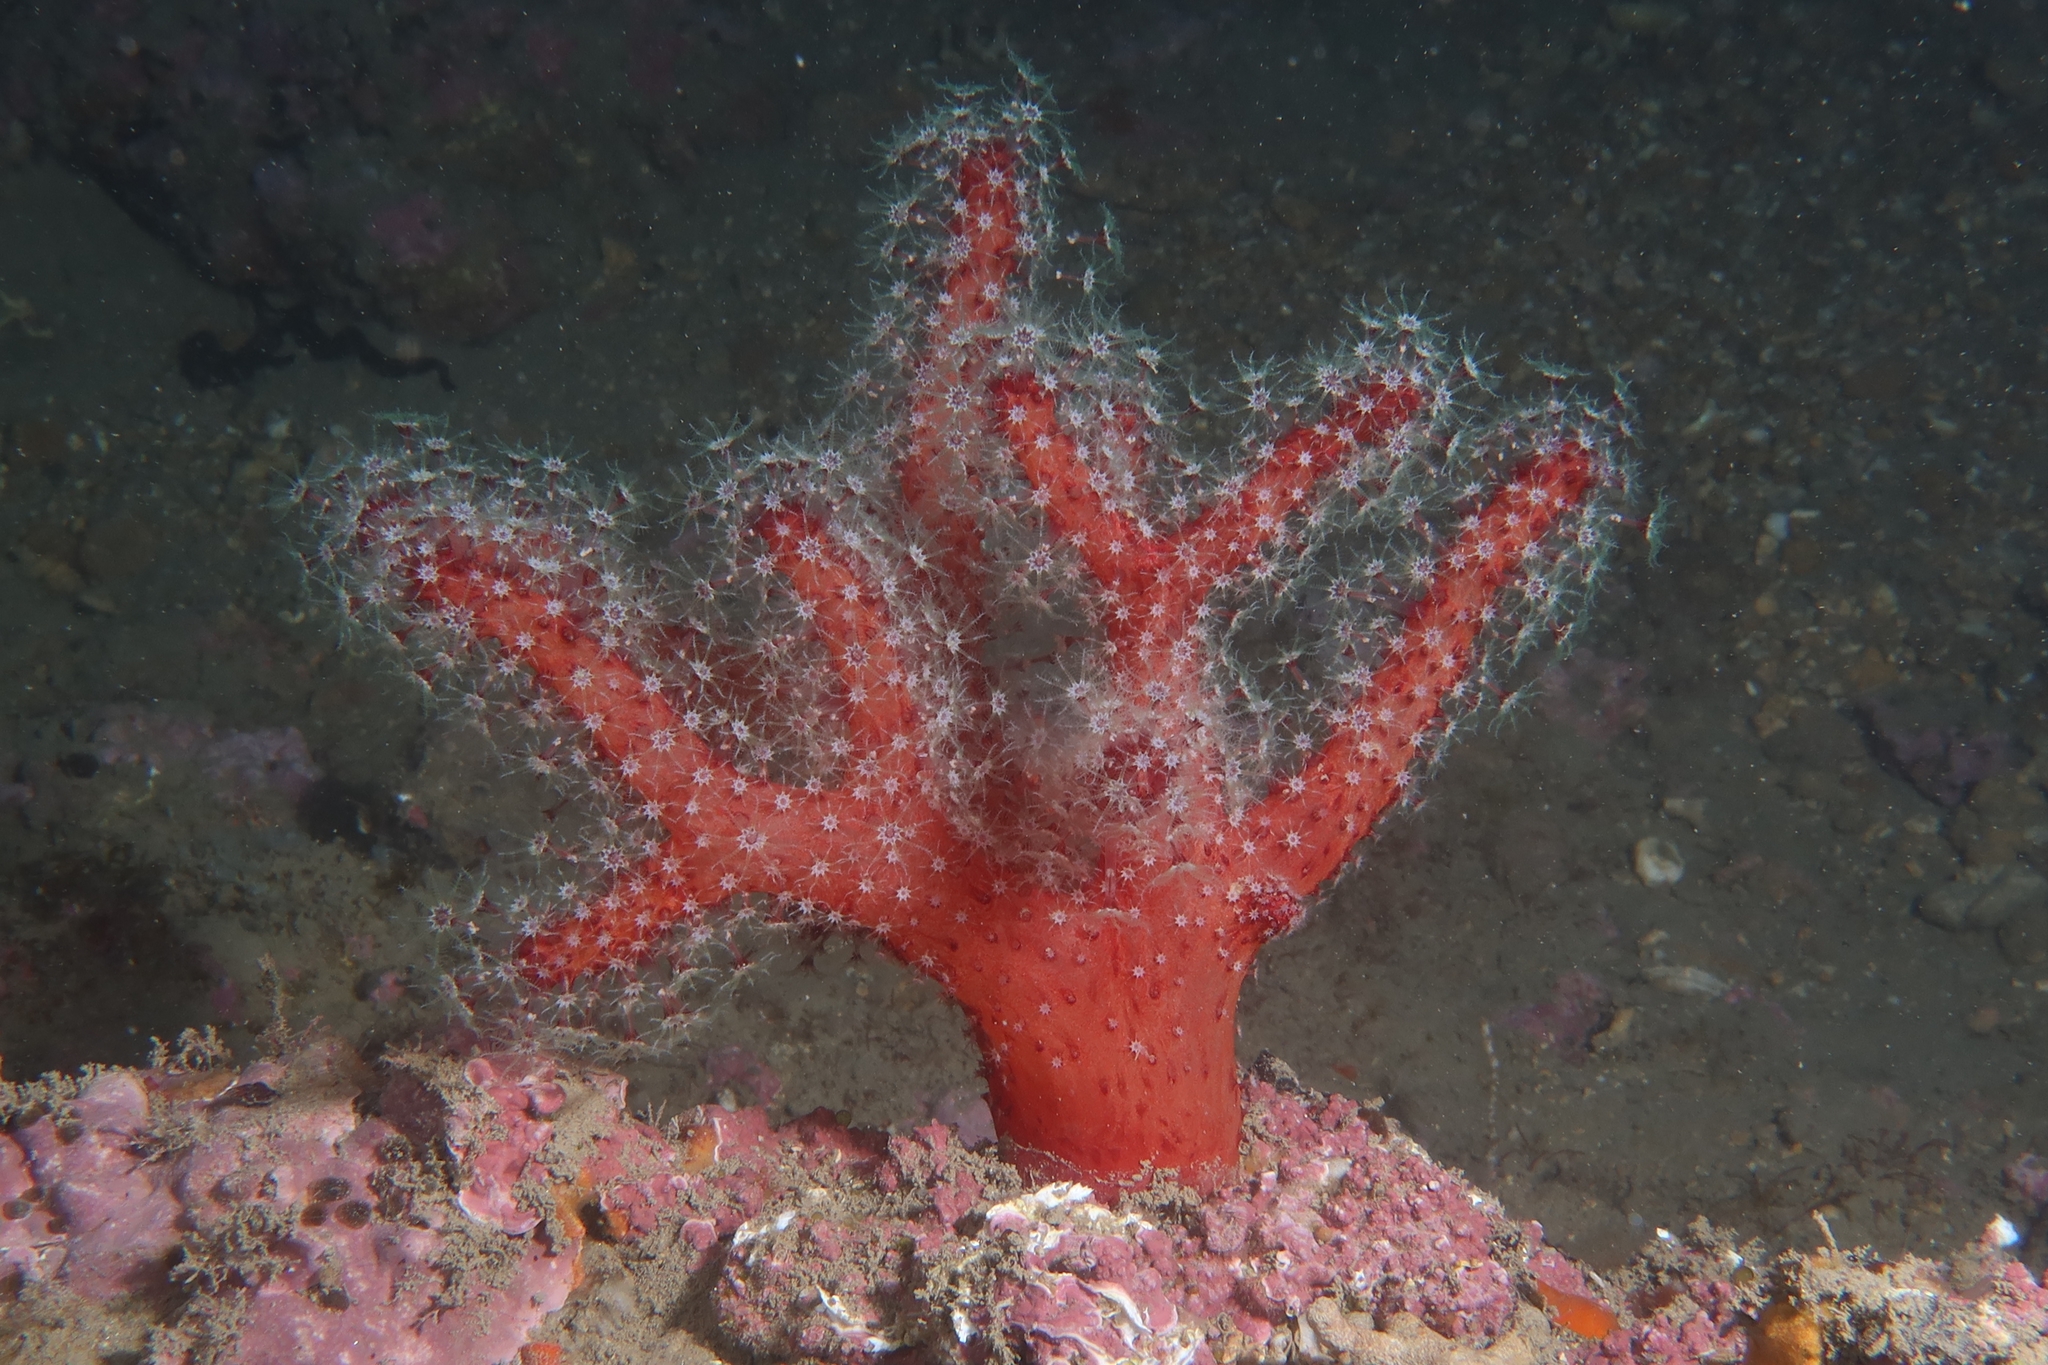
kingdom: Animalia
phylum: Cnidaria
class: Anthozoa
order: Malacalcyonacea
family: Alcyoniidae
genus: Alcyonium
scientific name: Alcyonium acaule
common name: Sea finger
